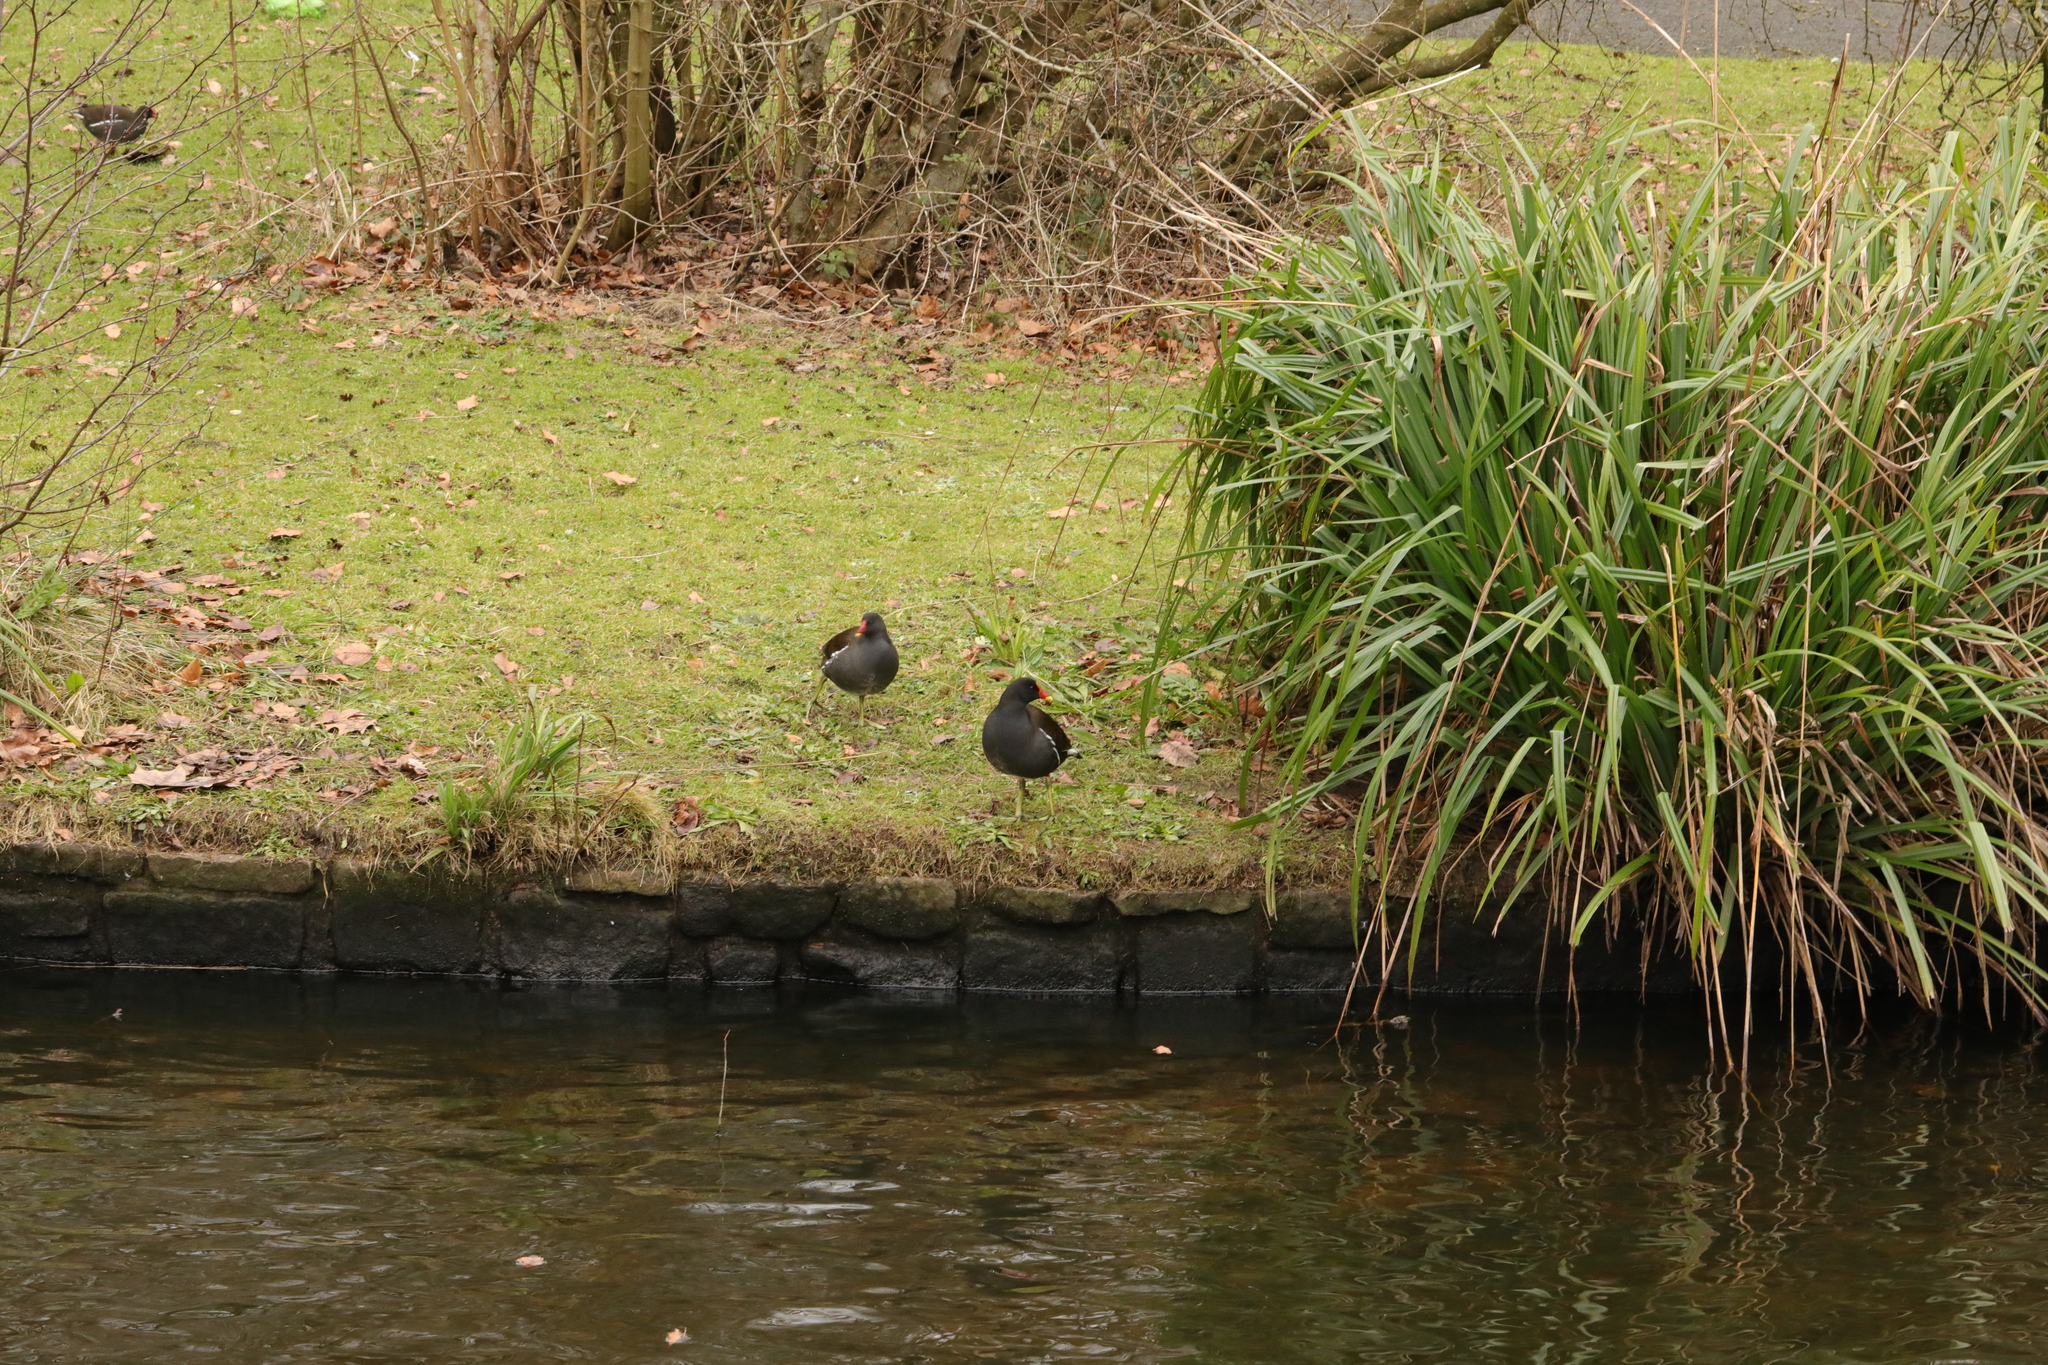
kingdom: Animalia
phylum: Chordata
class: Aves
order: Gruiformes
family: Rallidae
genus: Gallinula
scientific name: Gallinula chloropus
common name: Common moorhen
